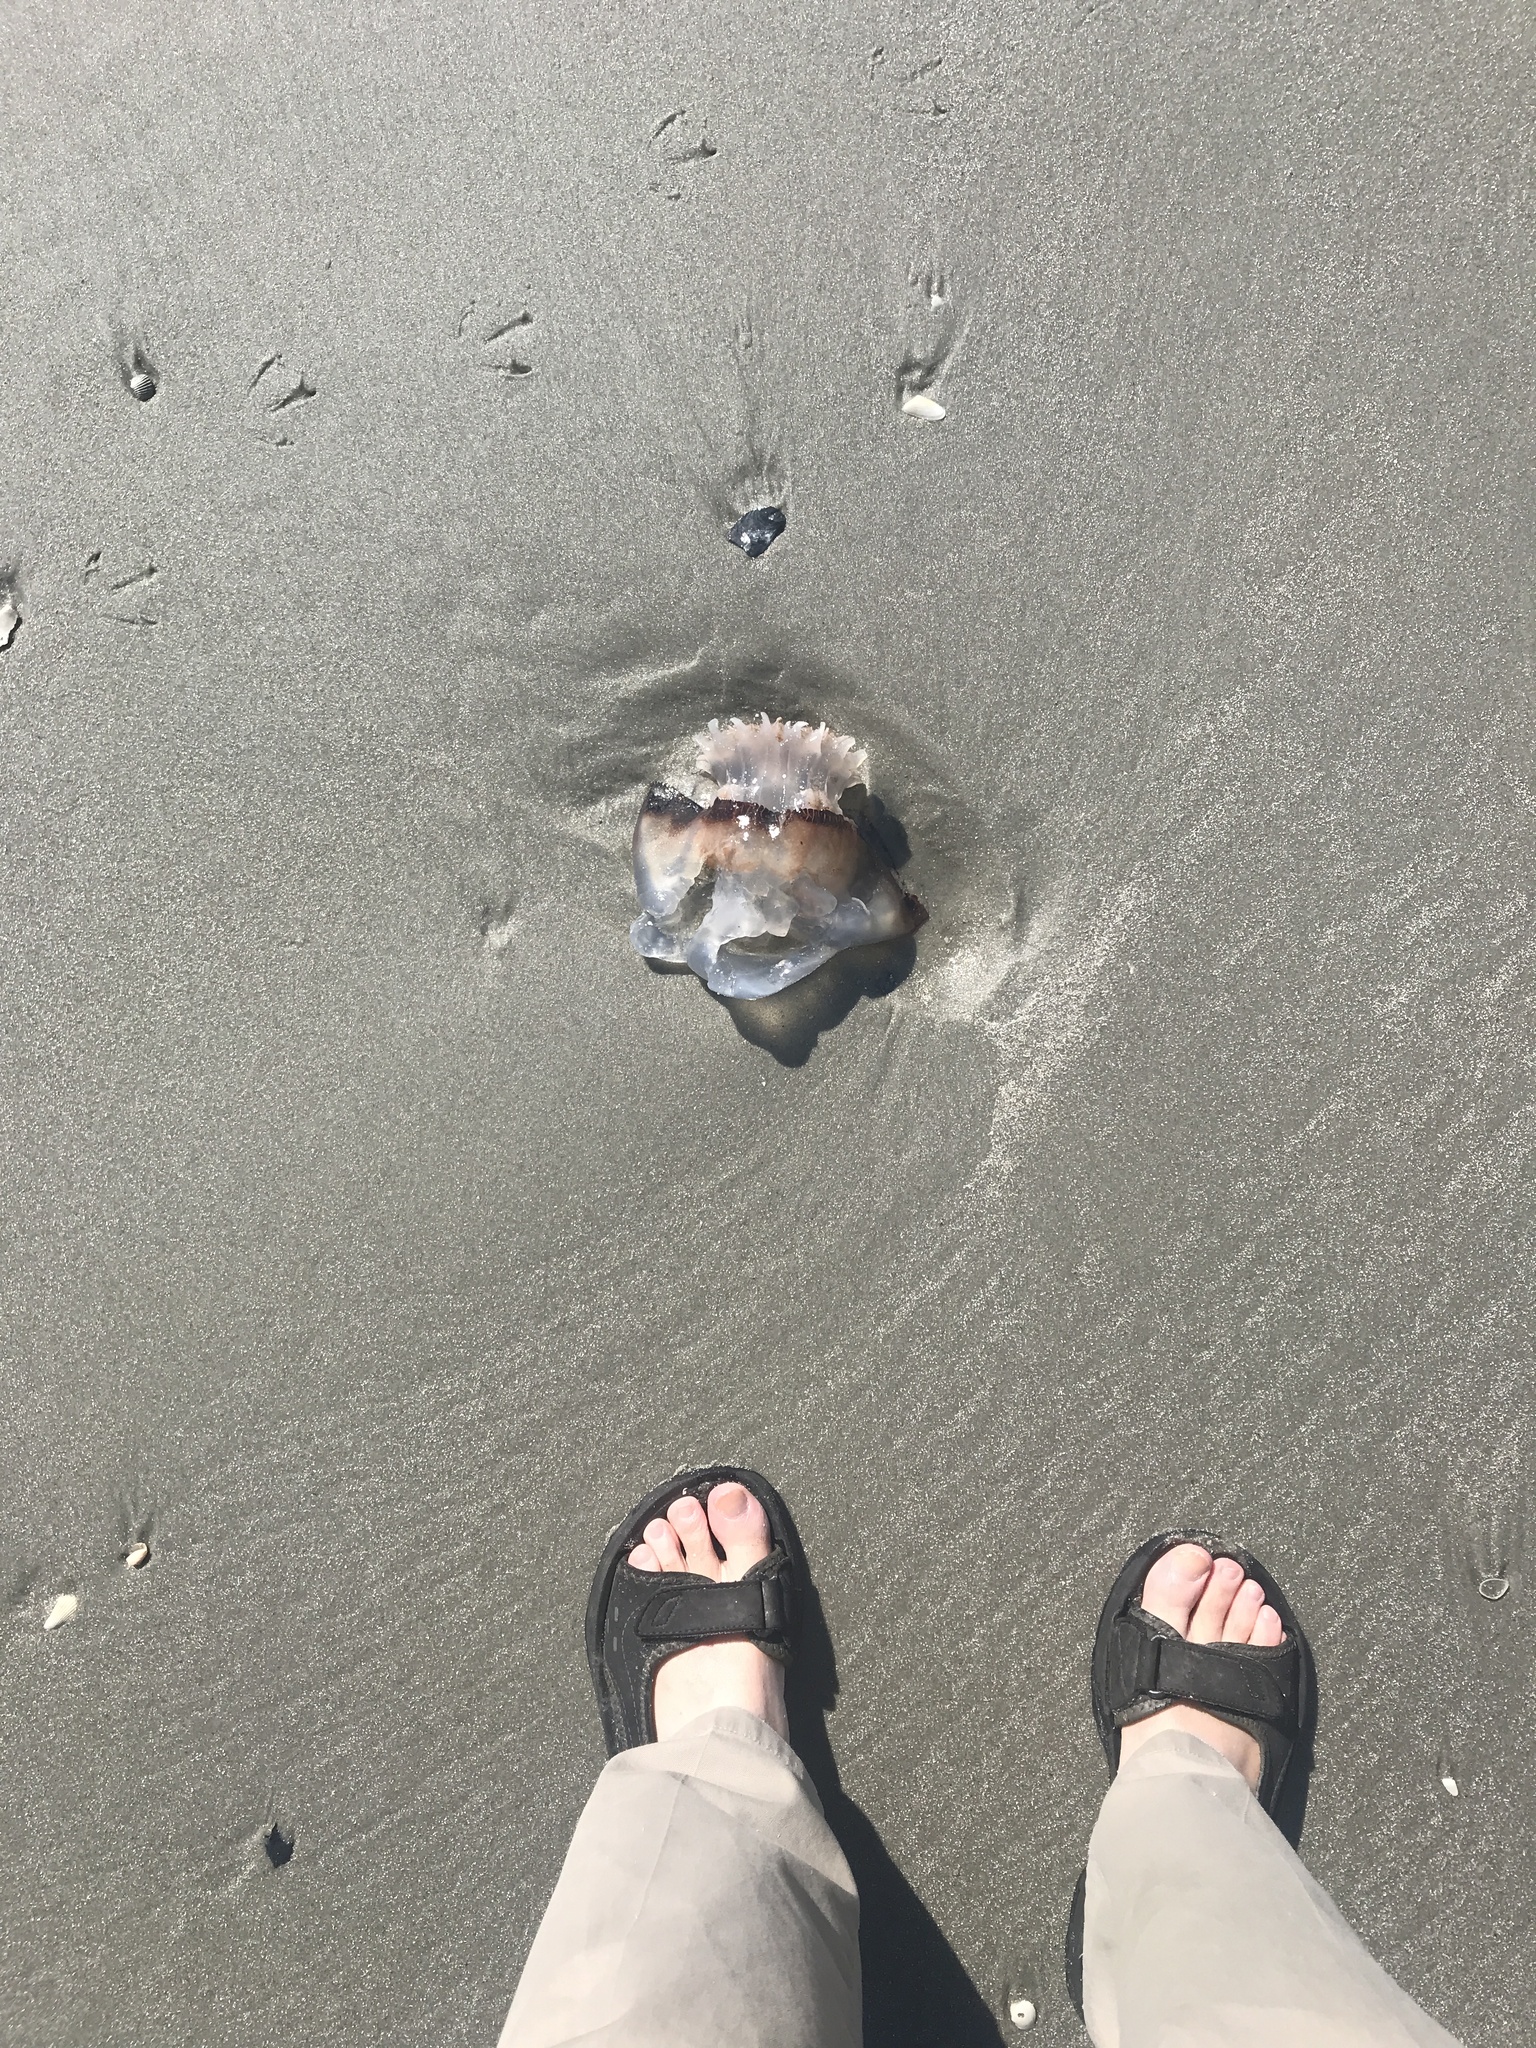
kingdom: Animalia
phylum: Cnidaria
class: Scyphozoa
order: Rhizostomeae
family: Stomolophidae
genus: Stomolophus
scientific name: Stomolophus meleagris
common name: Cabbagehead
